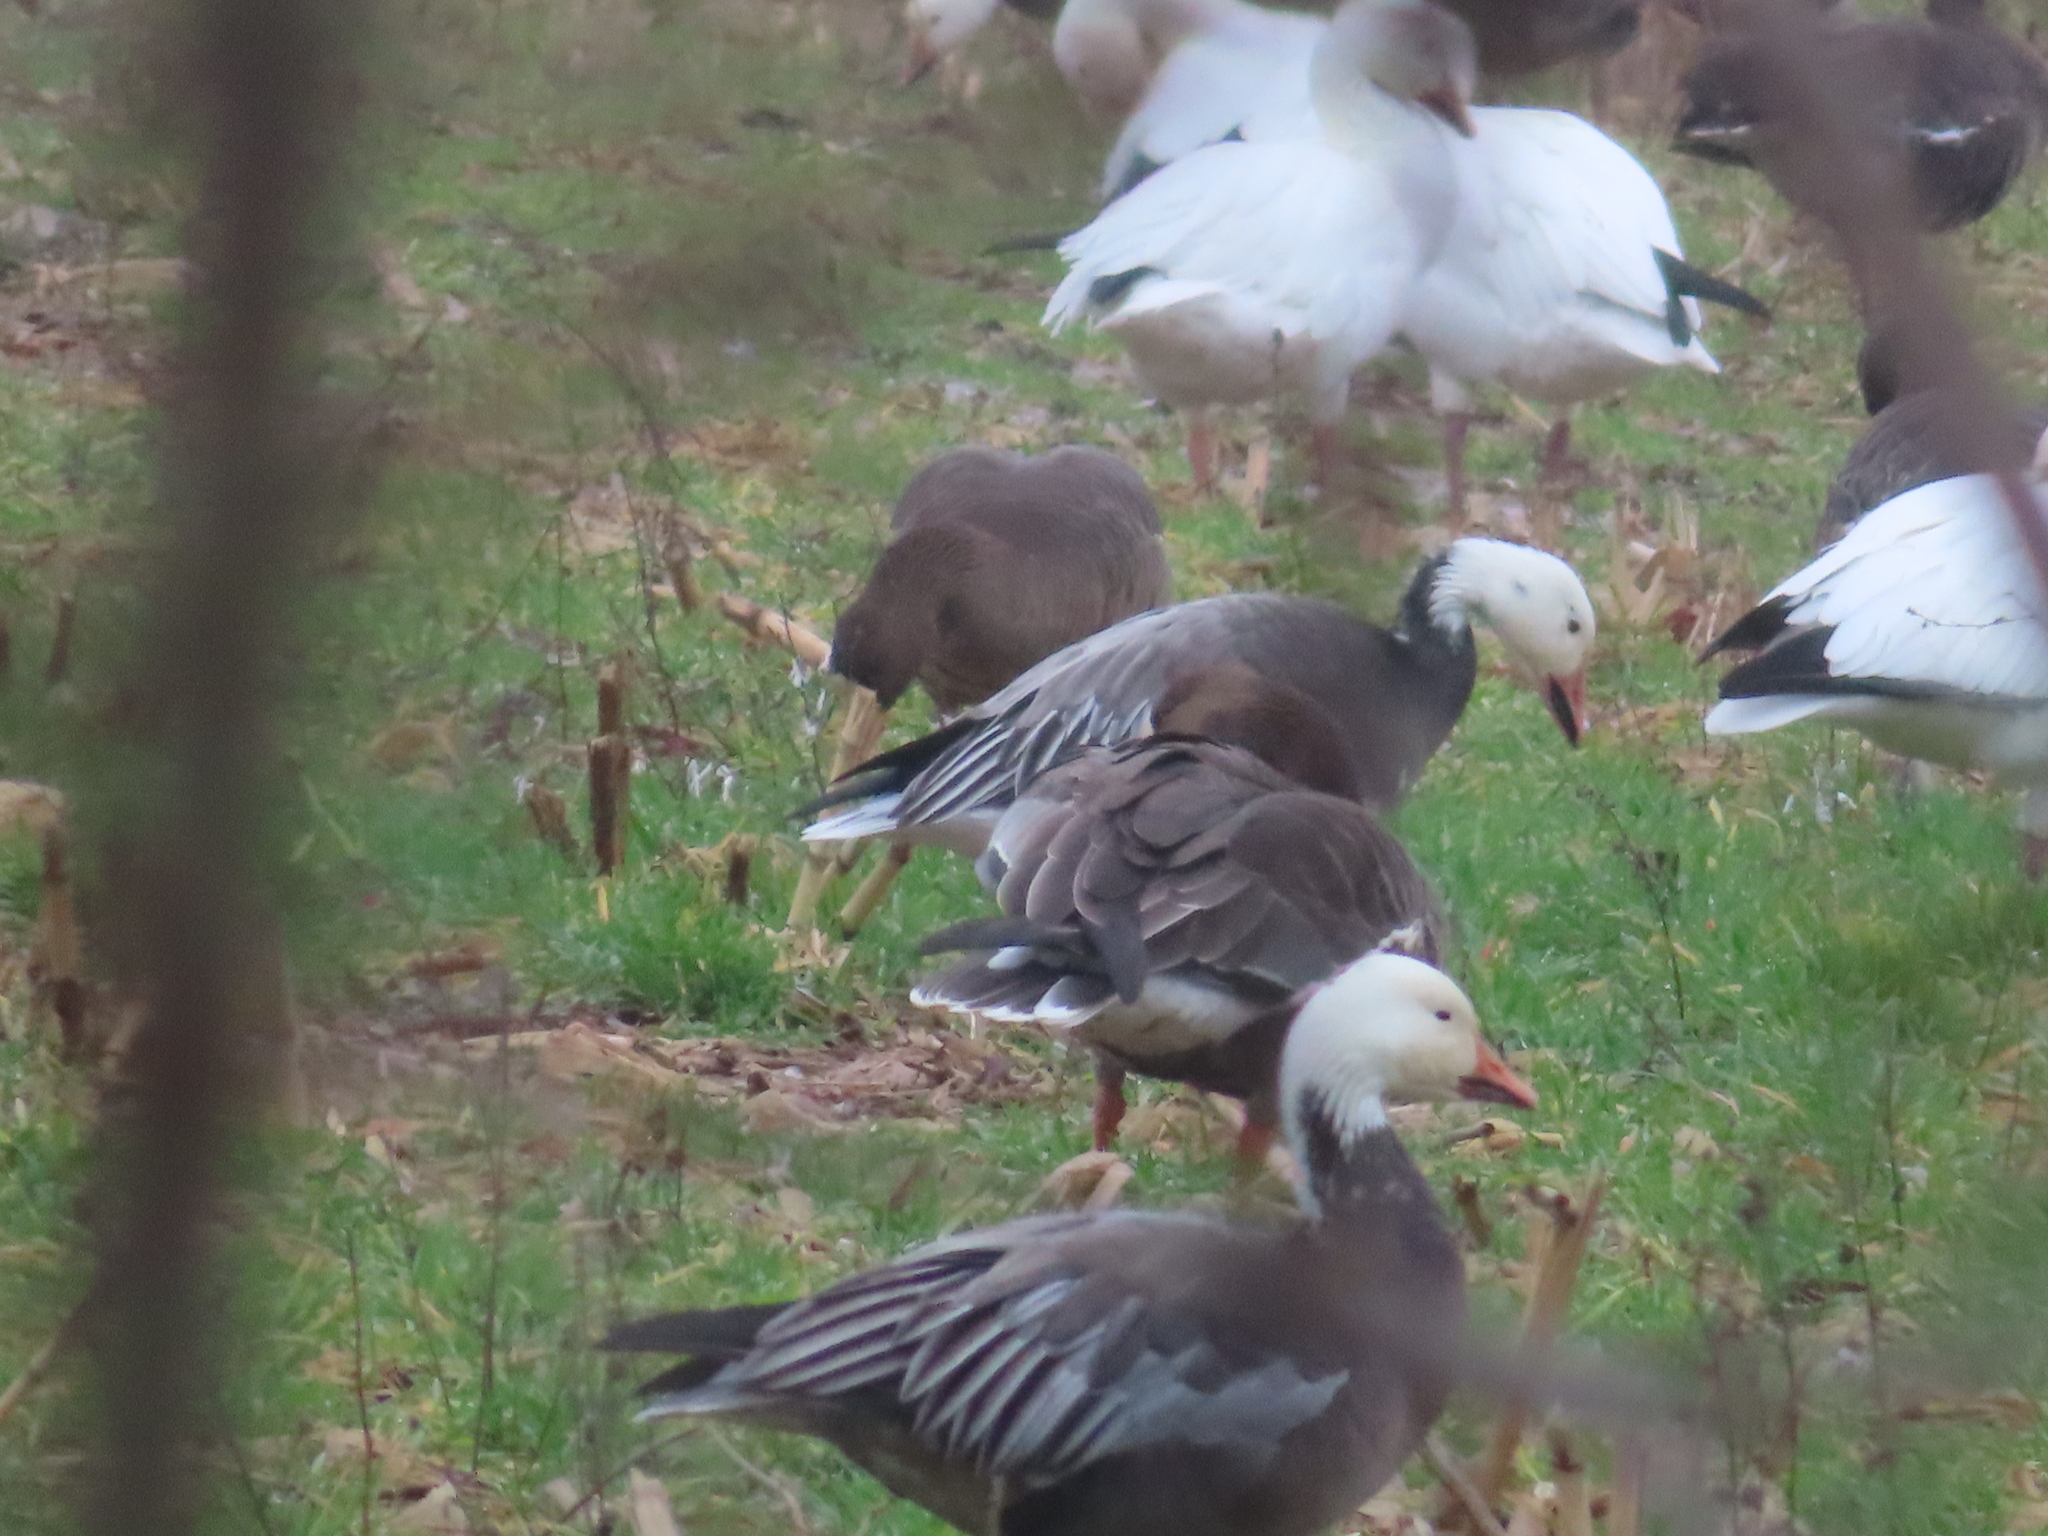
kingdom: Animalia
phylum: Chordata
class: Aves
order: Anseriformes
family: Anatidae
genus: Anser
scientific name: Anser caerulescens
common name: Snow goose
